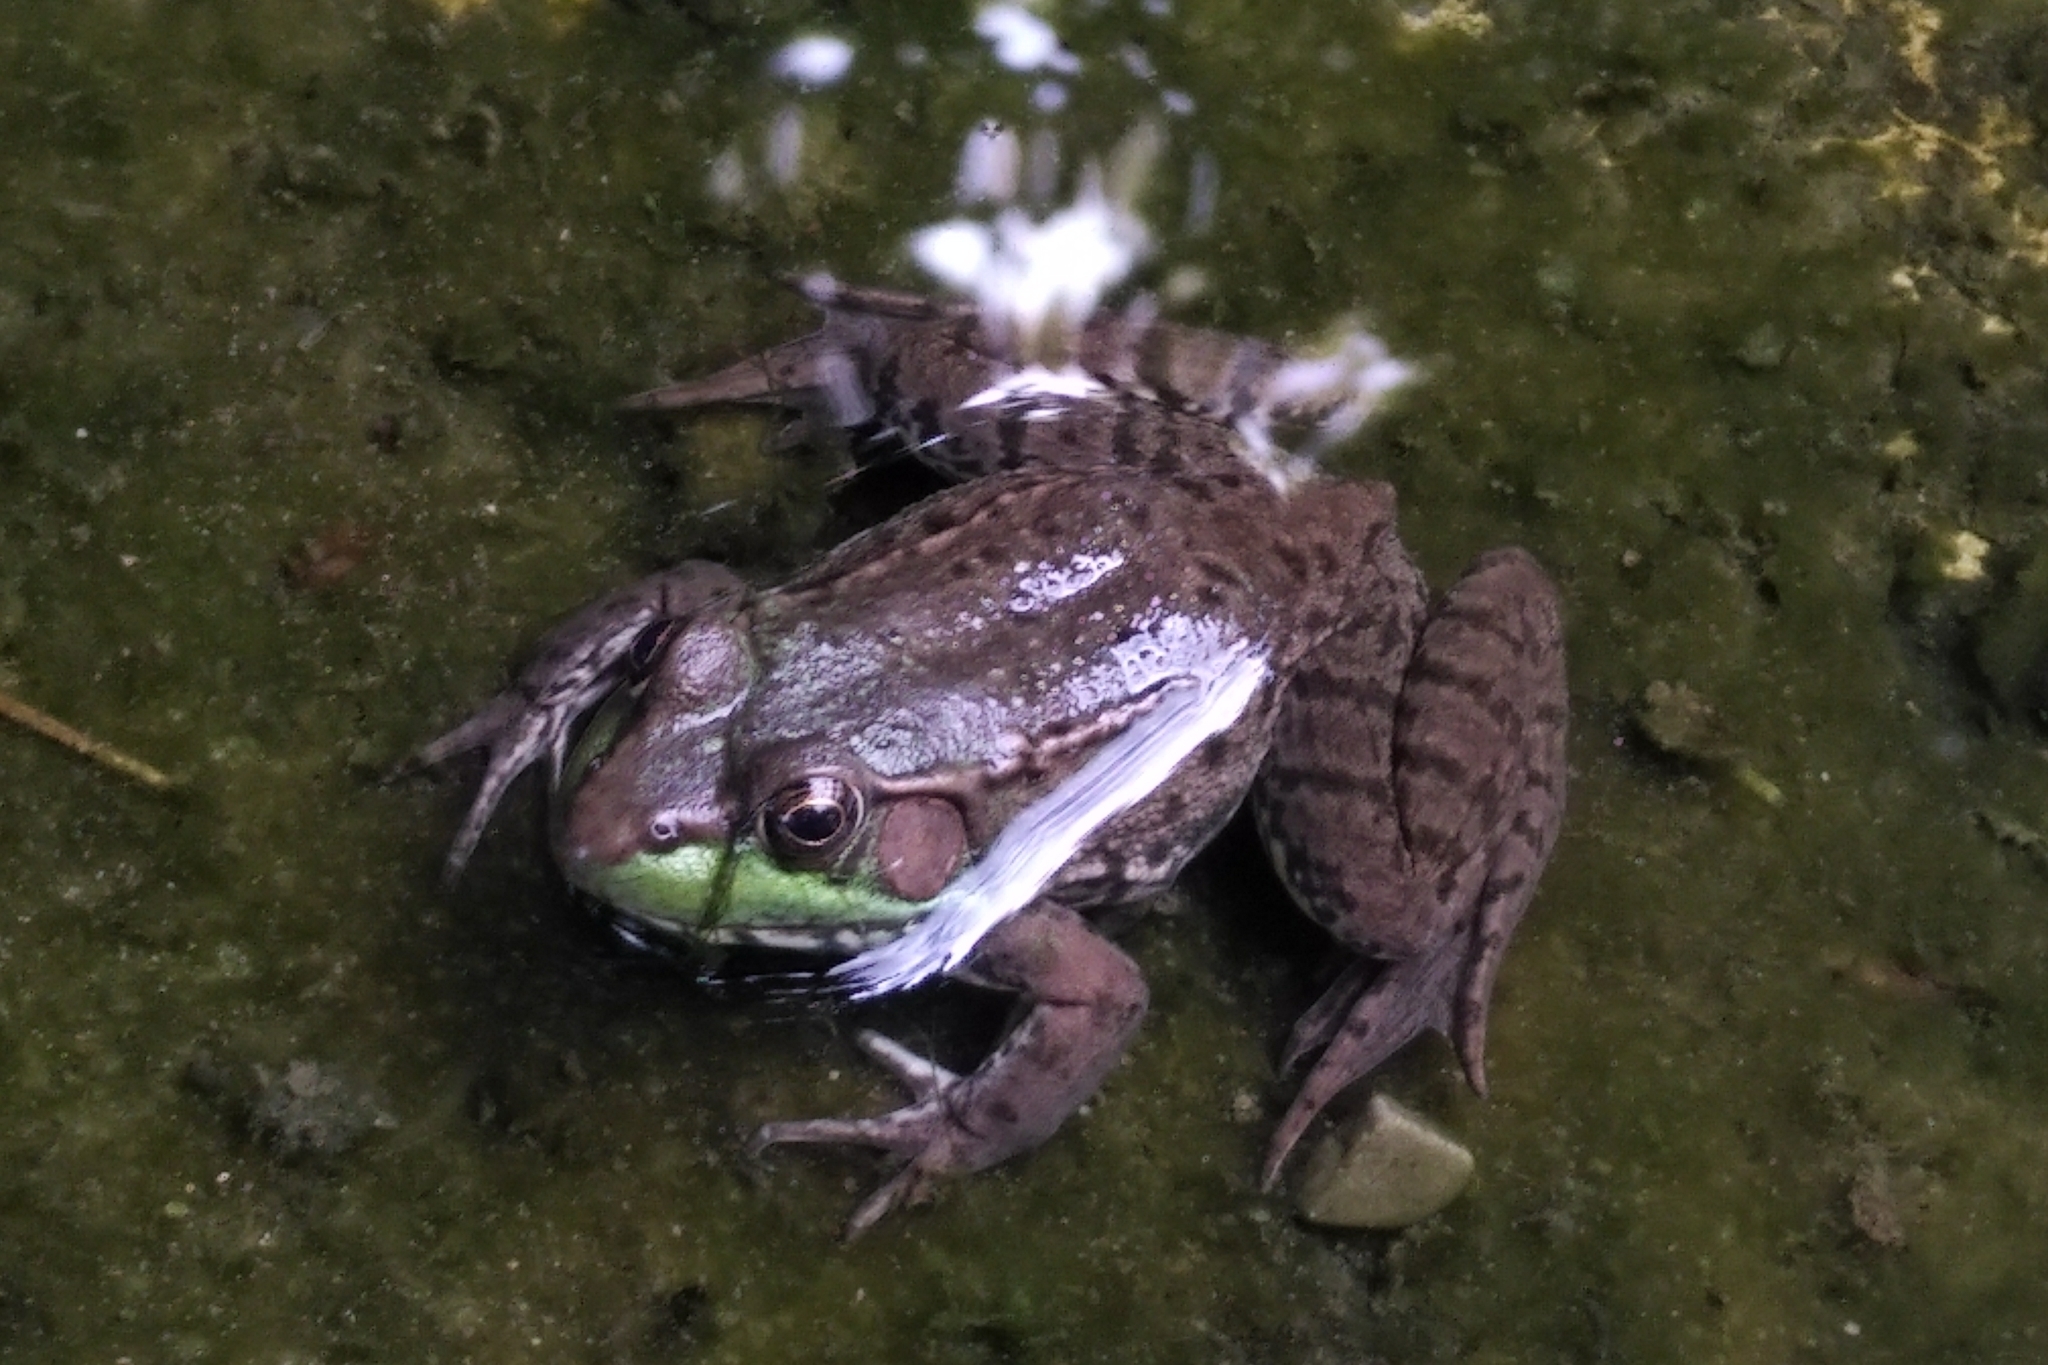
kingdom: Animalia
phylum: Chordata
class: Amphibia
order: Anura
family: Ranidae
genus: Lithobates
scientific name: Lithobates clamitans
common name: Green frog
